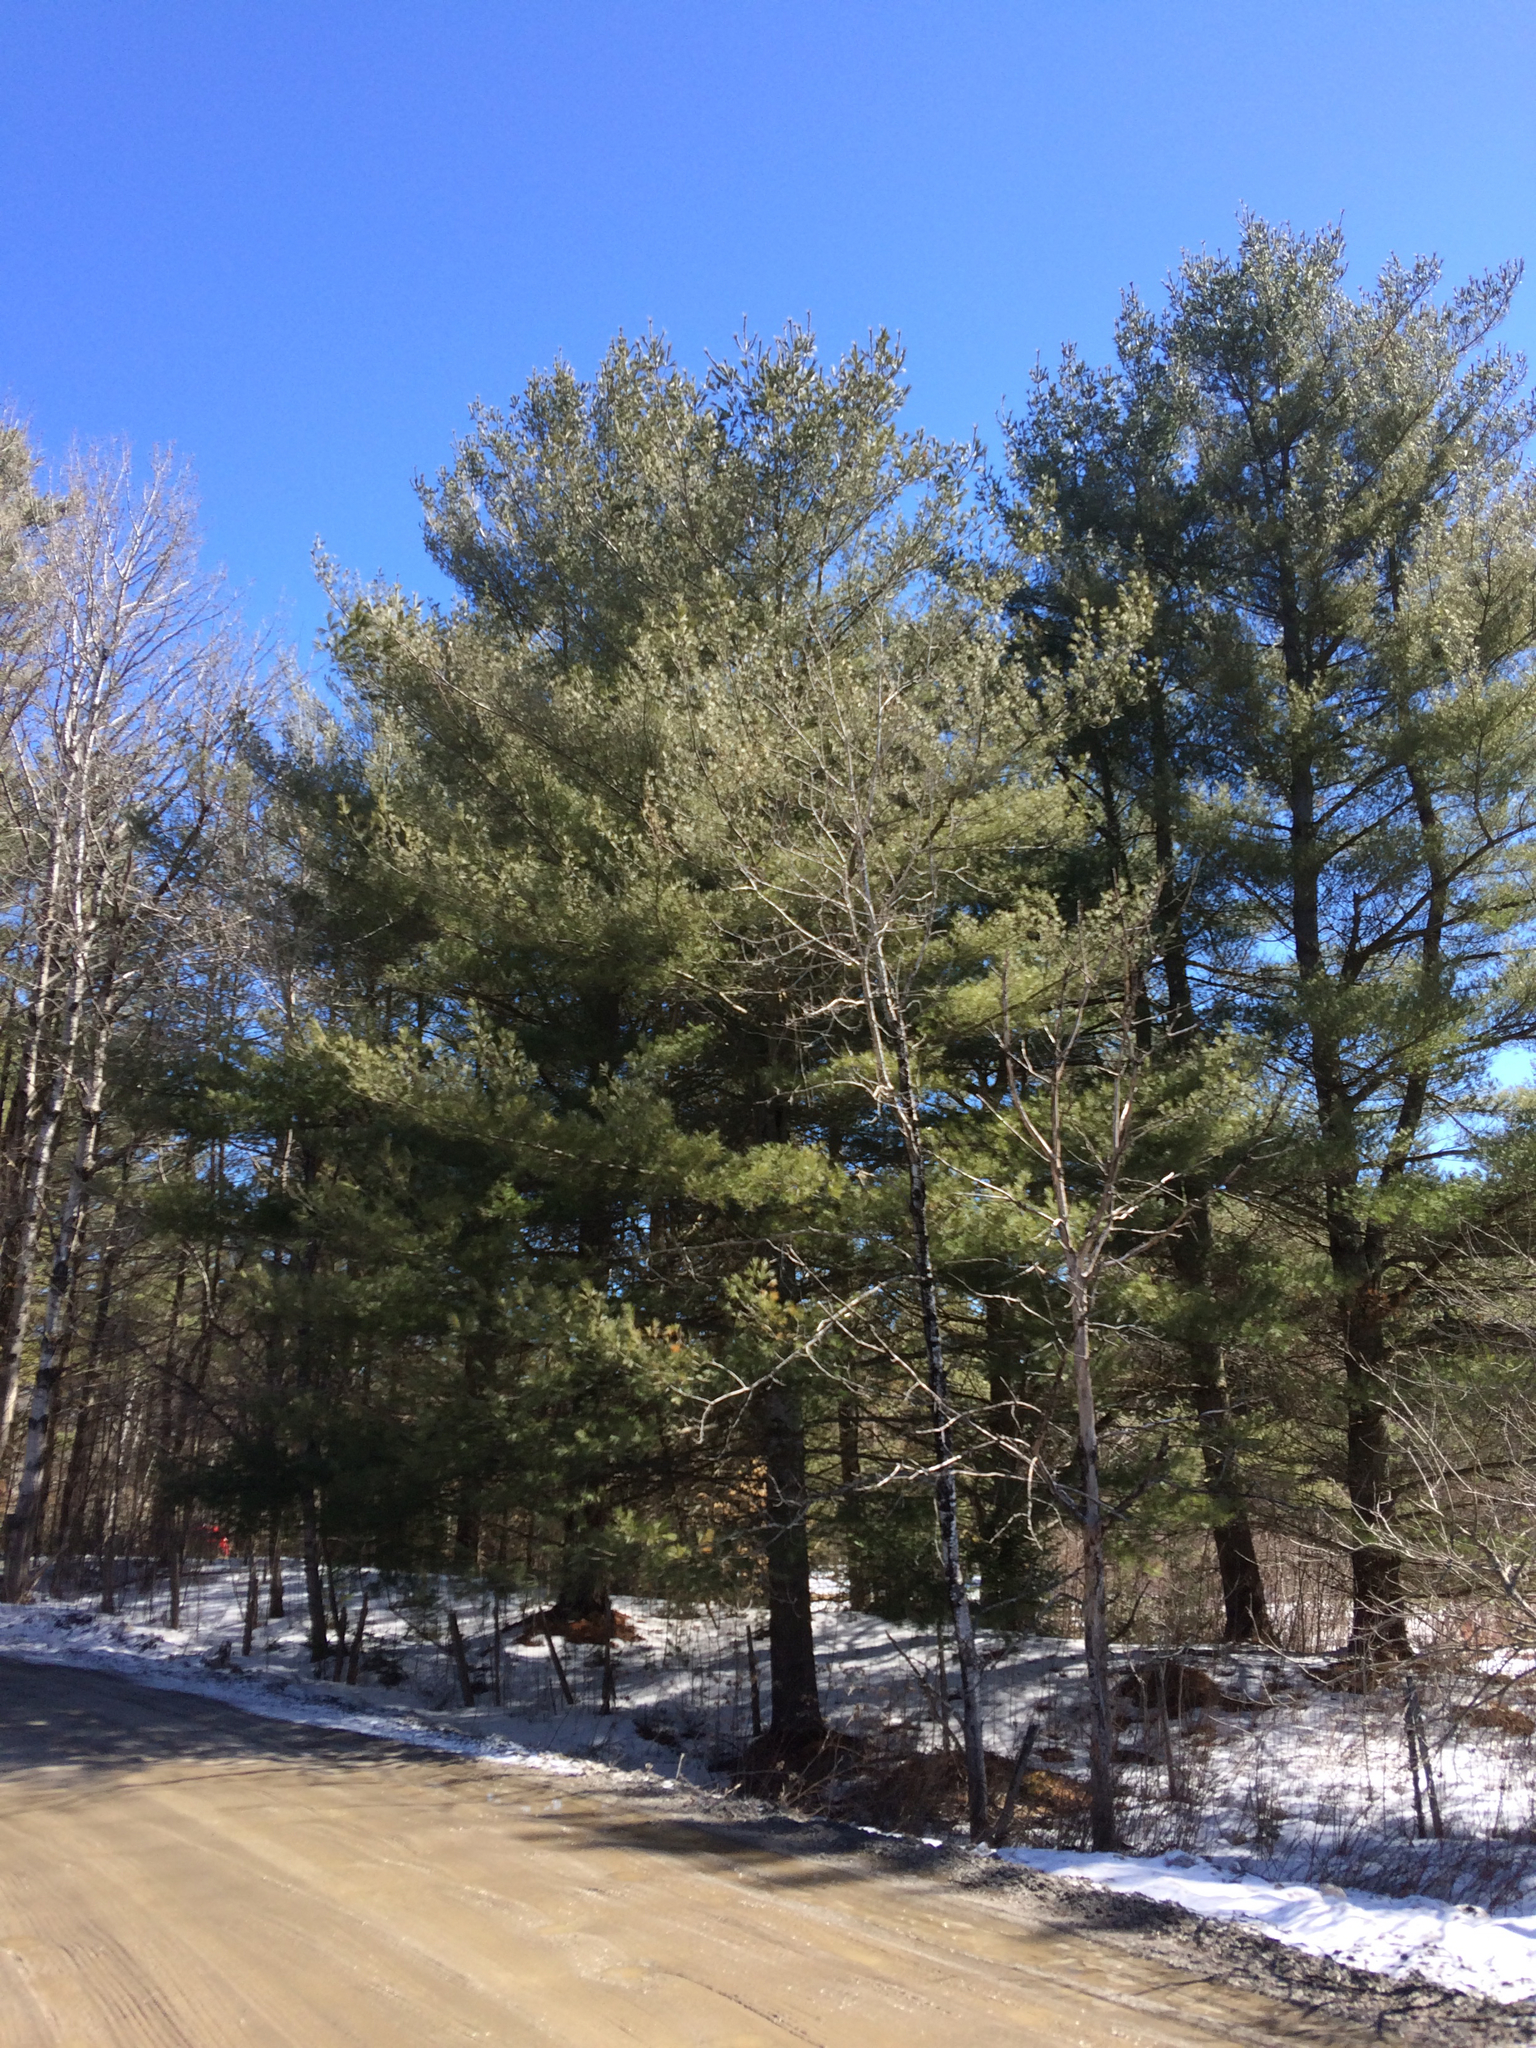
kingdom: Plantae
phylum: Tracheophyta
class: Pinopsida
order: Pinales
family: Pinaceae
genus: Pinus
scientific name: Pinus strobus
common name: Weymouth pine
